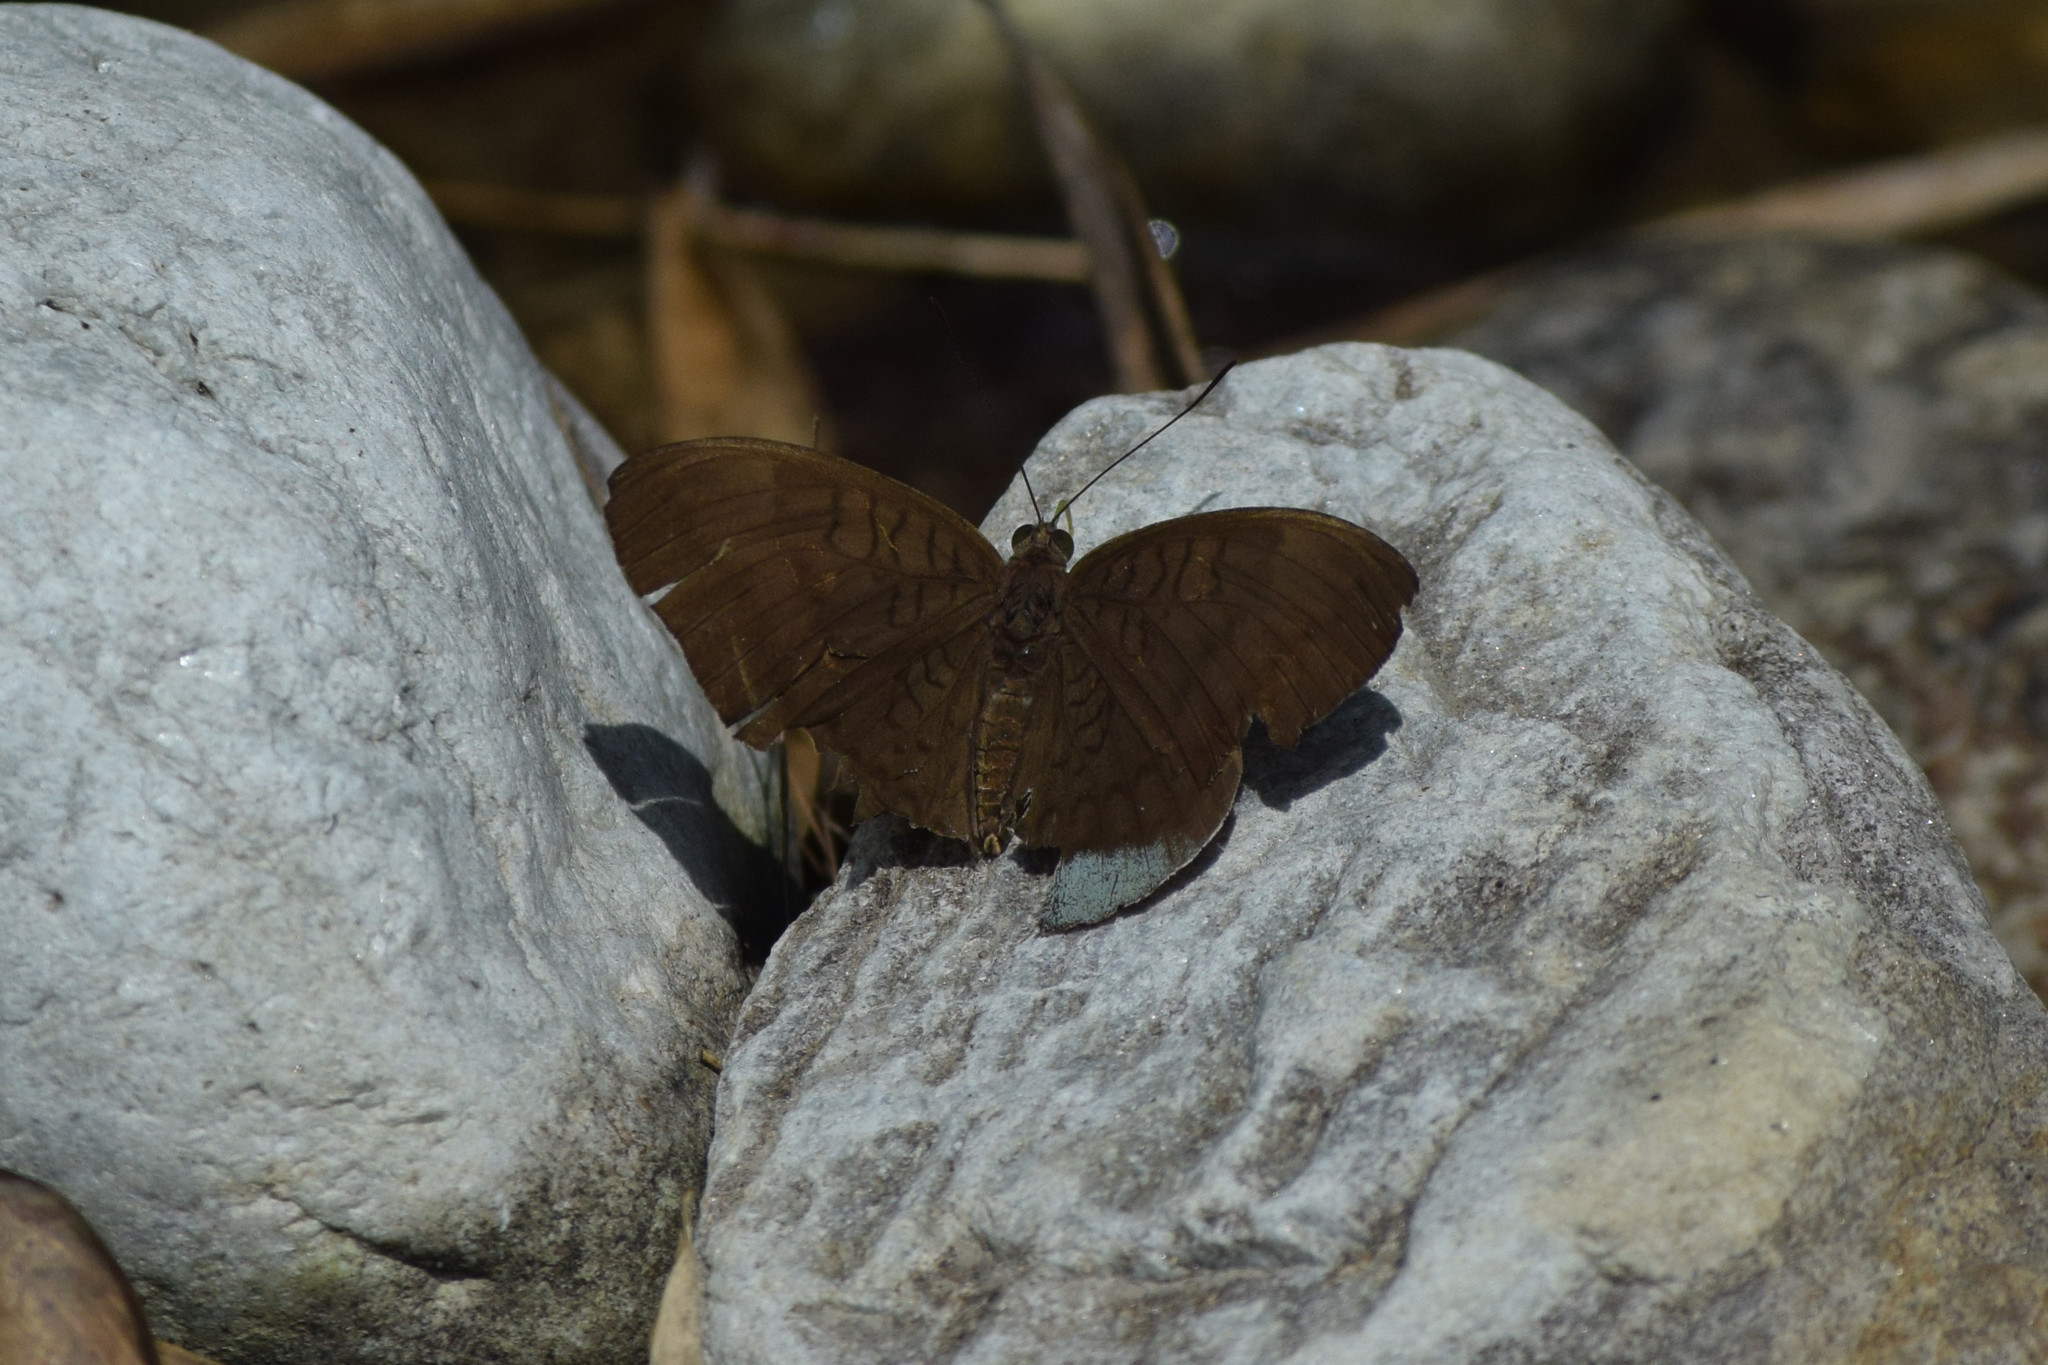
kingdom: Animalia
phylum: Arthropoda
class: Insecta
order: Lepidoptera
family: Nymphalidae
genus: Tanaecia
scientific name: Tanaecia julii
